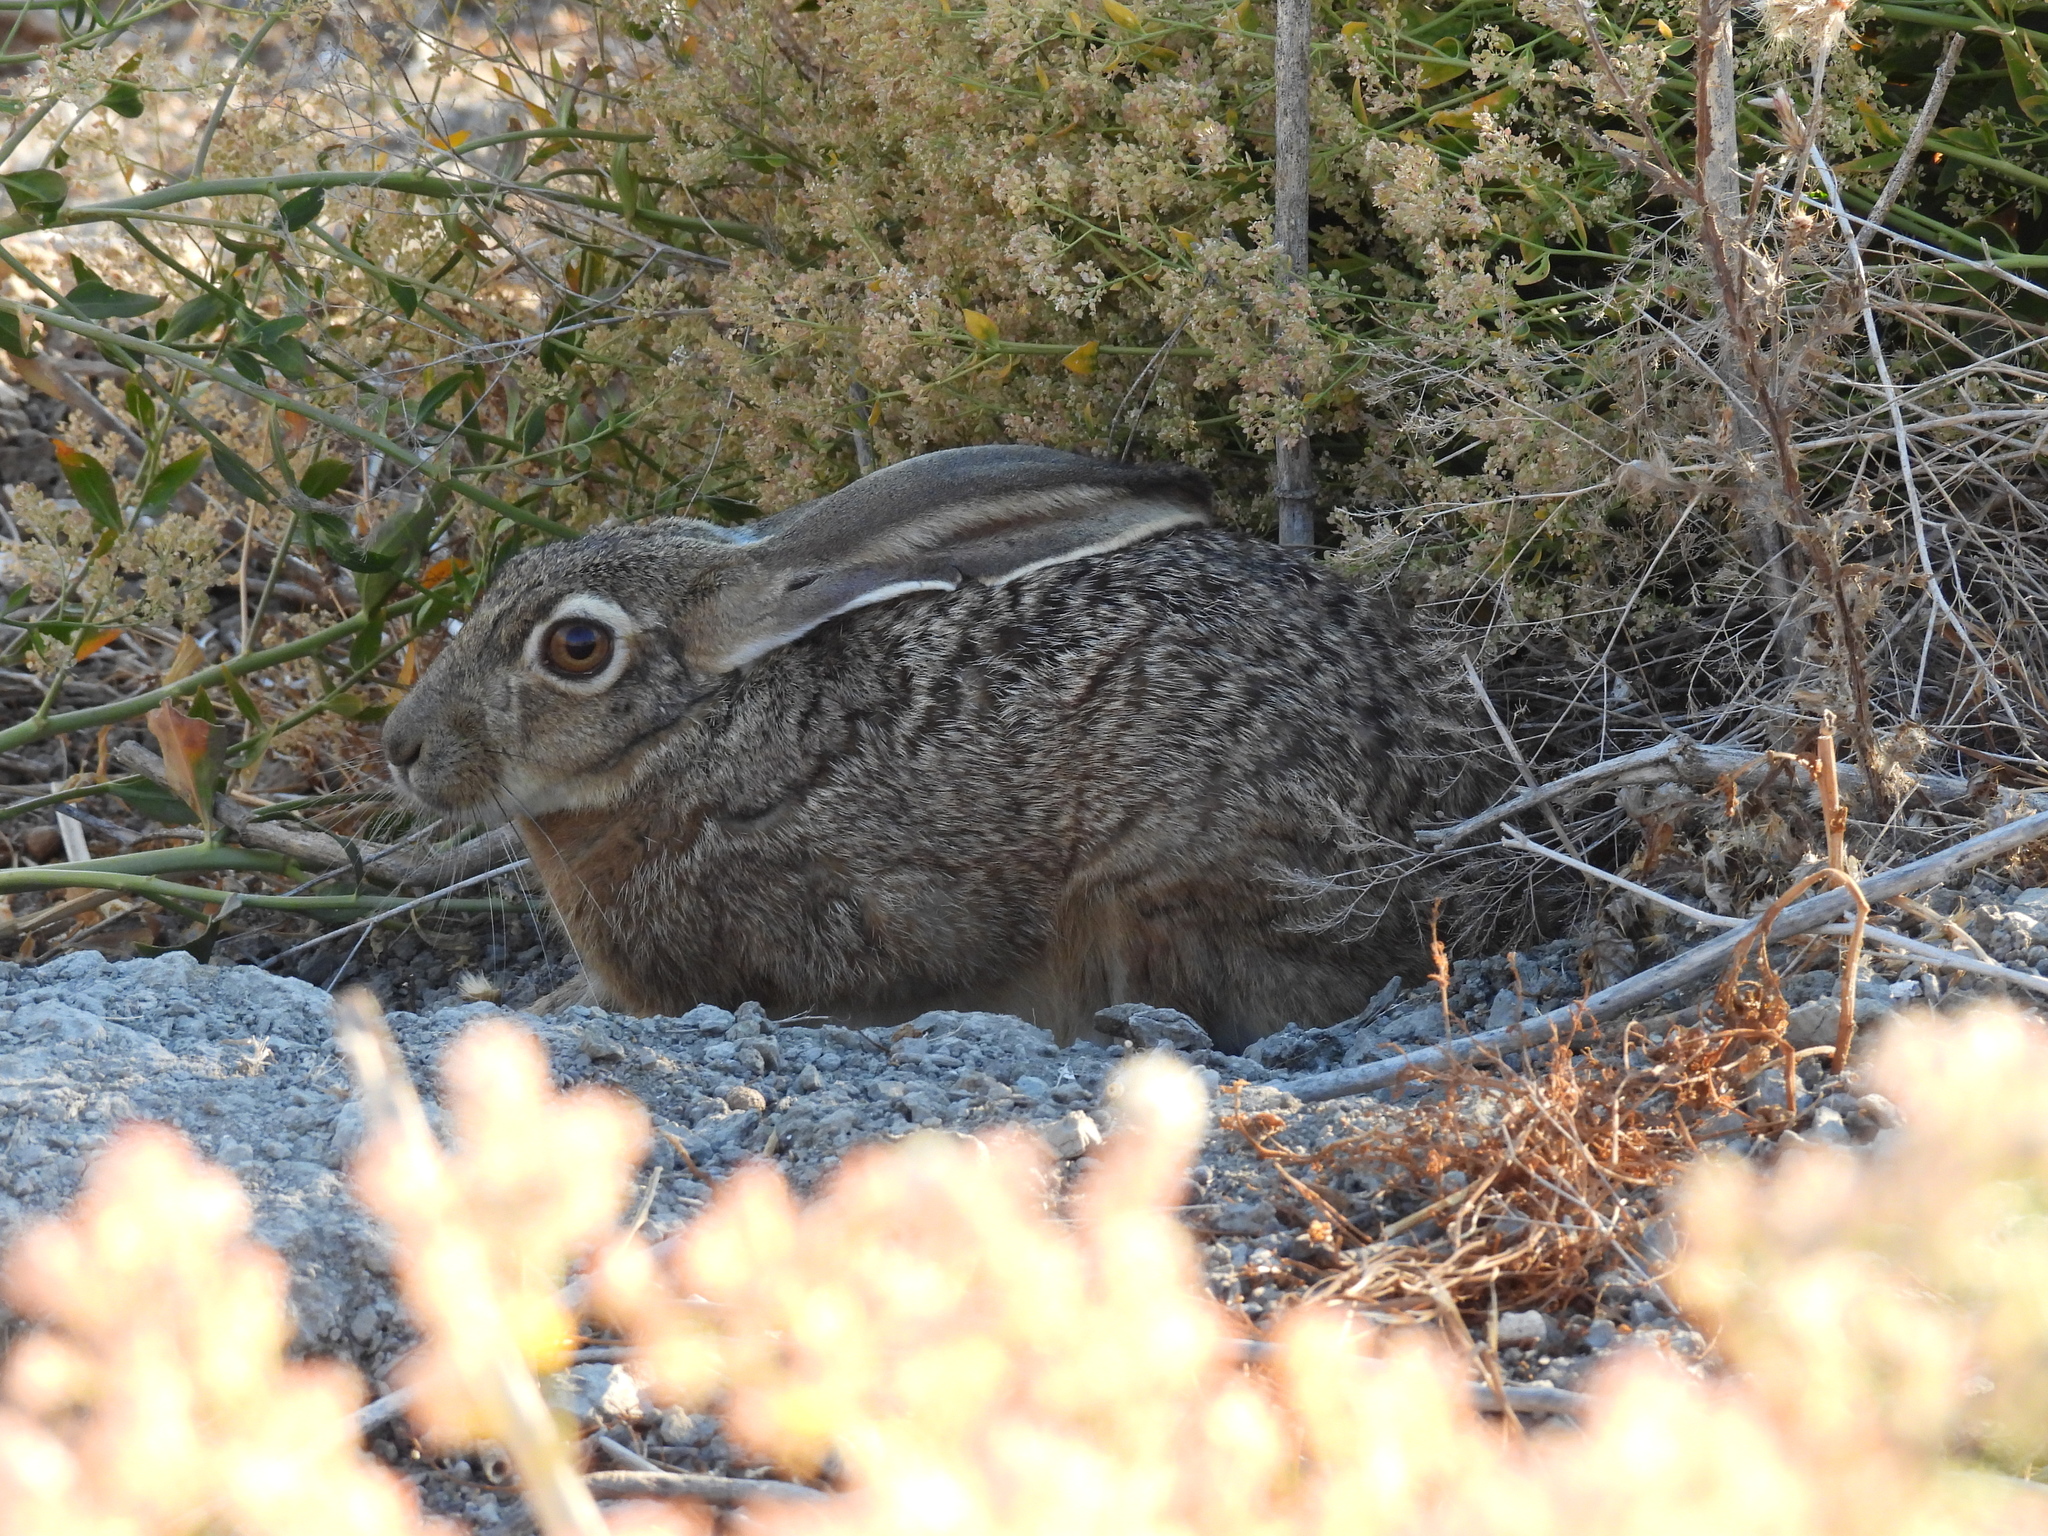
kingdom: Animalia
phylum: Chordata
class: Mammalia
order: Lagomorpha
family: Leporidae
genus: Lepus
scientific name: Lepus californicus
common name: Black-tailed jackrabbit
